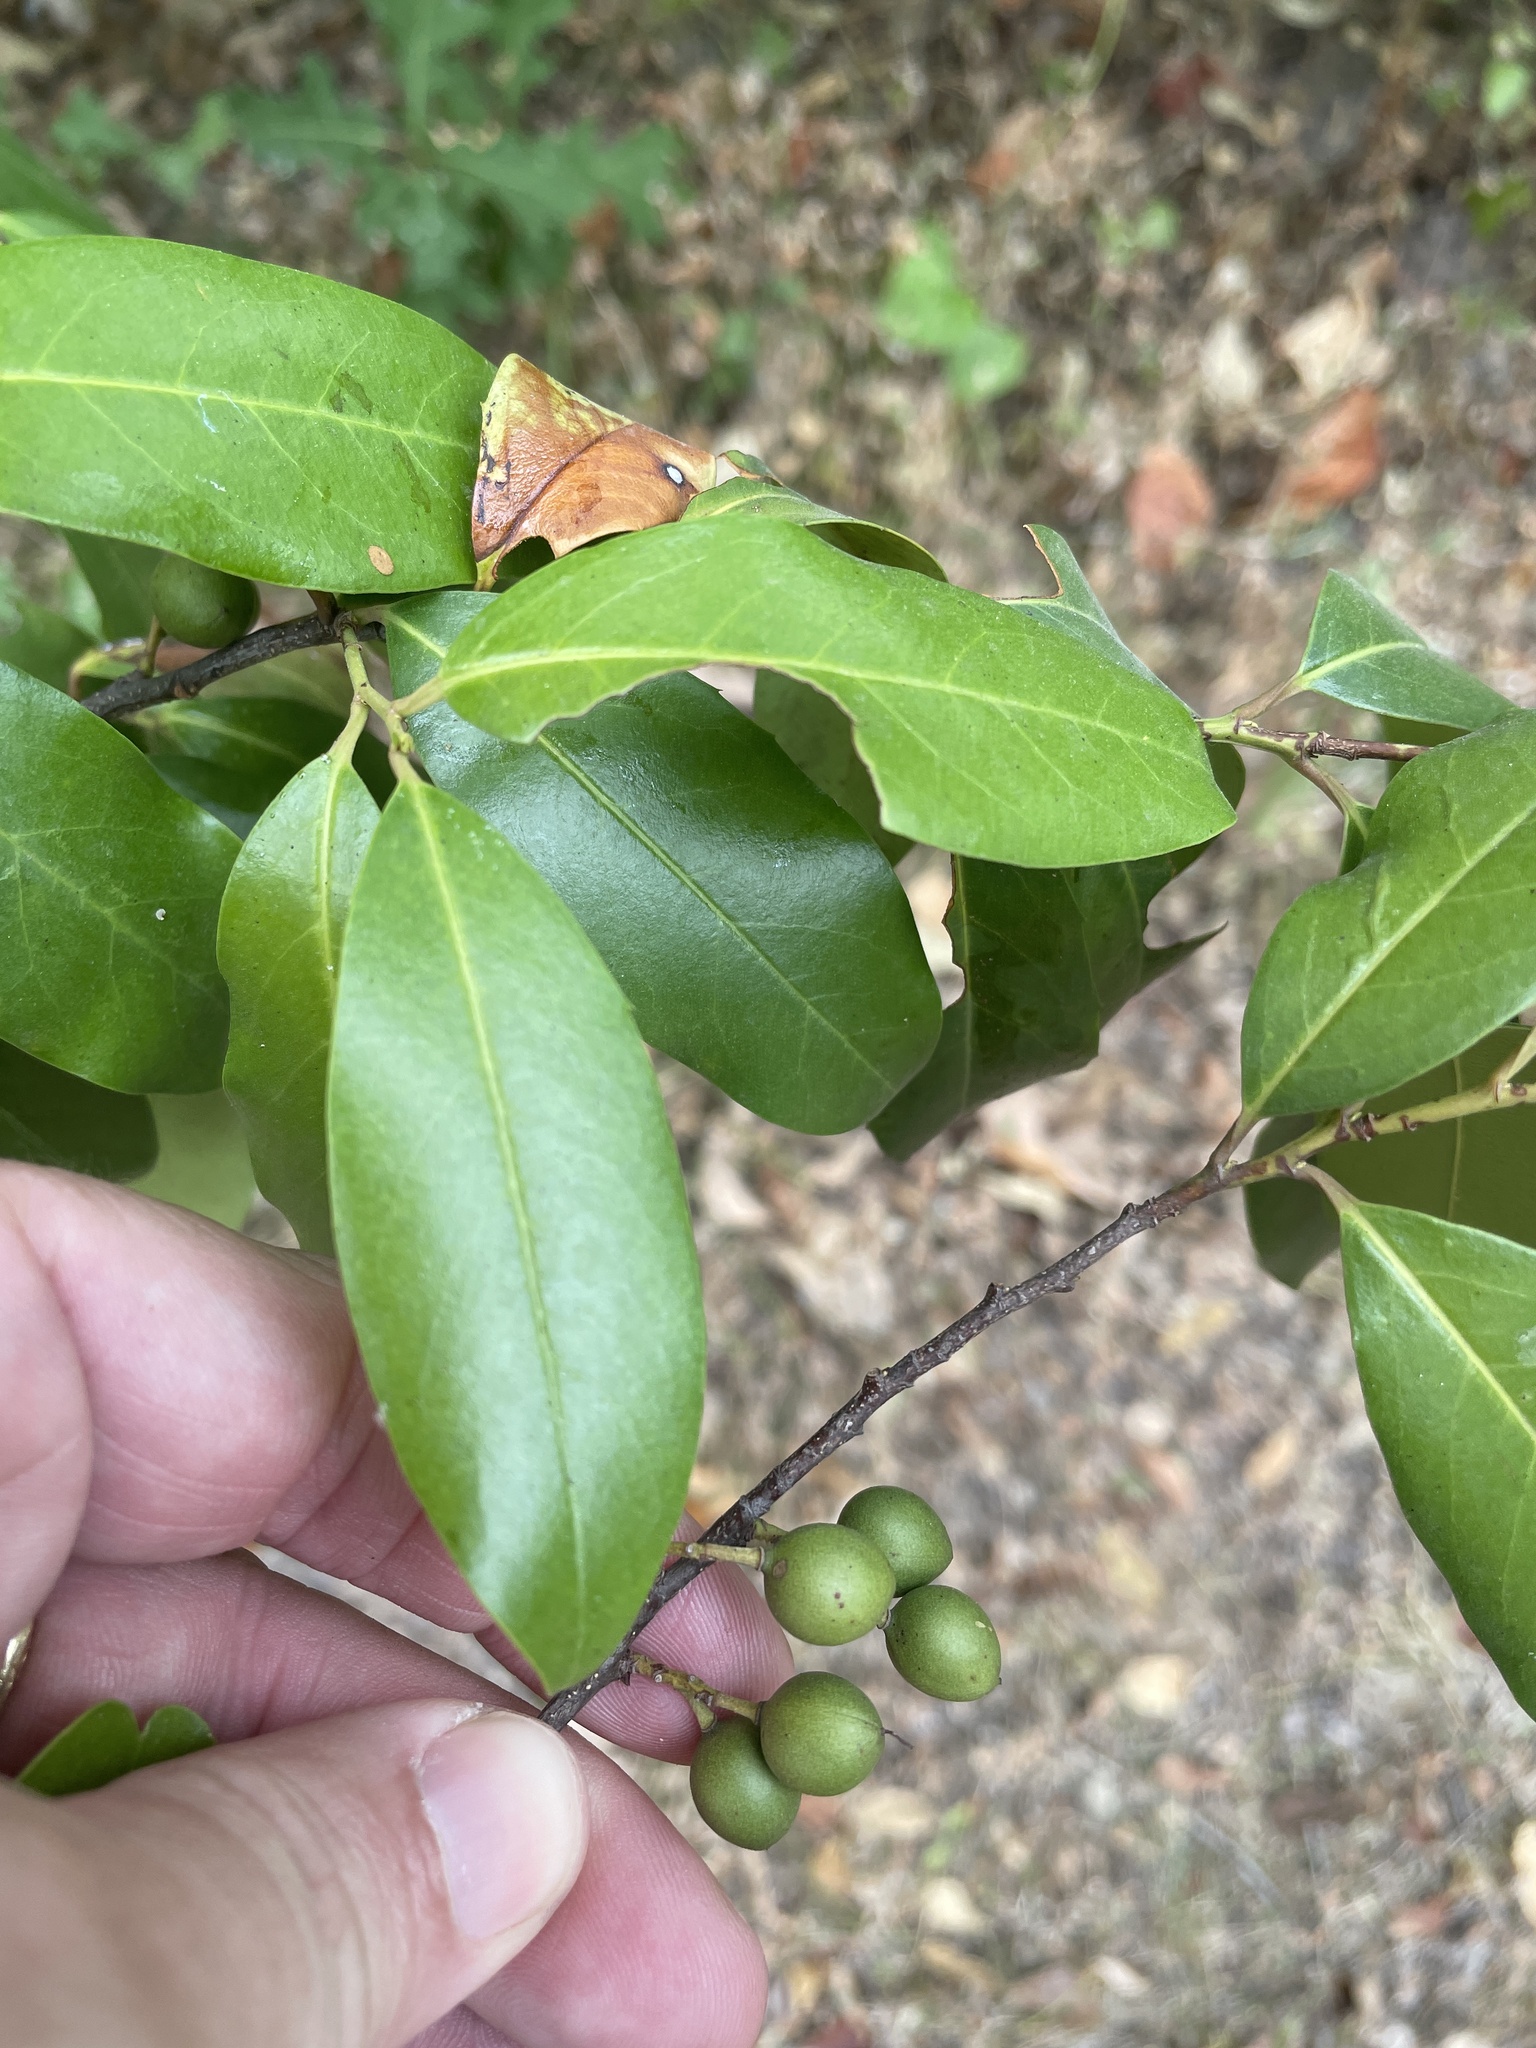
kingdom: Plantae
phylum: Tracheophyta
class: Magnoliopsida
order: Rosales
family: Rosaceae
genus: Prunus
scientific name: Prunus caroliniana
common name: Carolina laurel cherry
